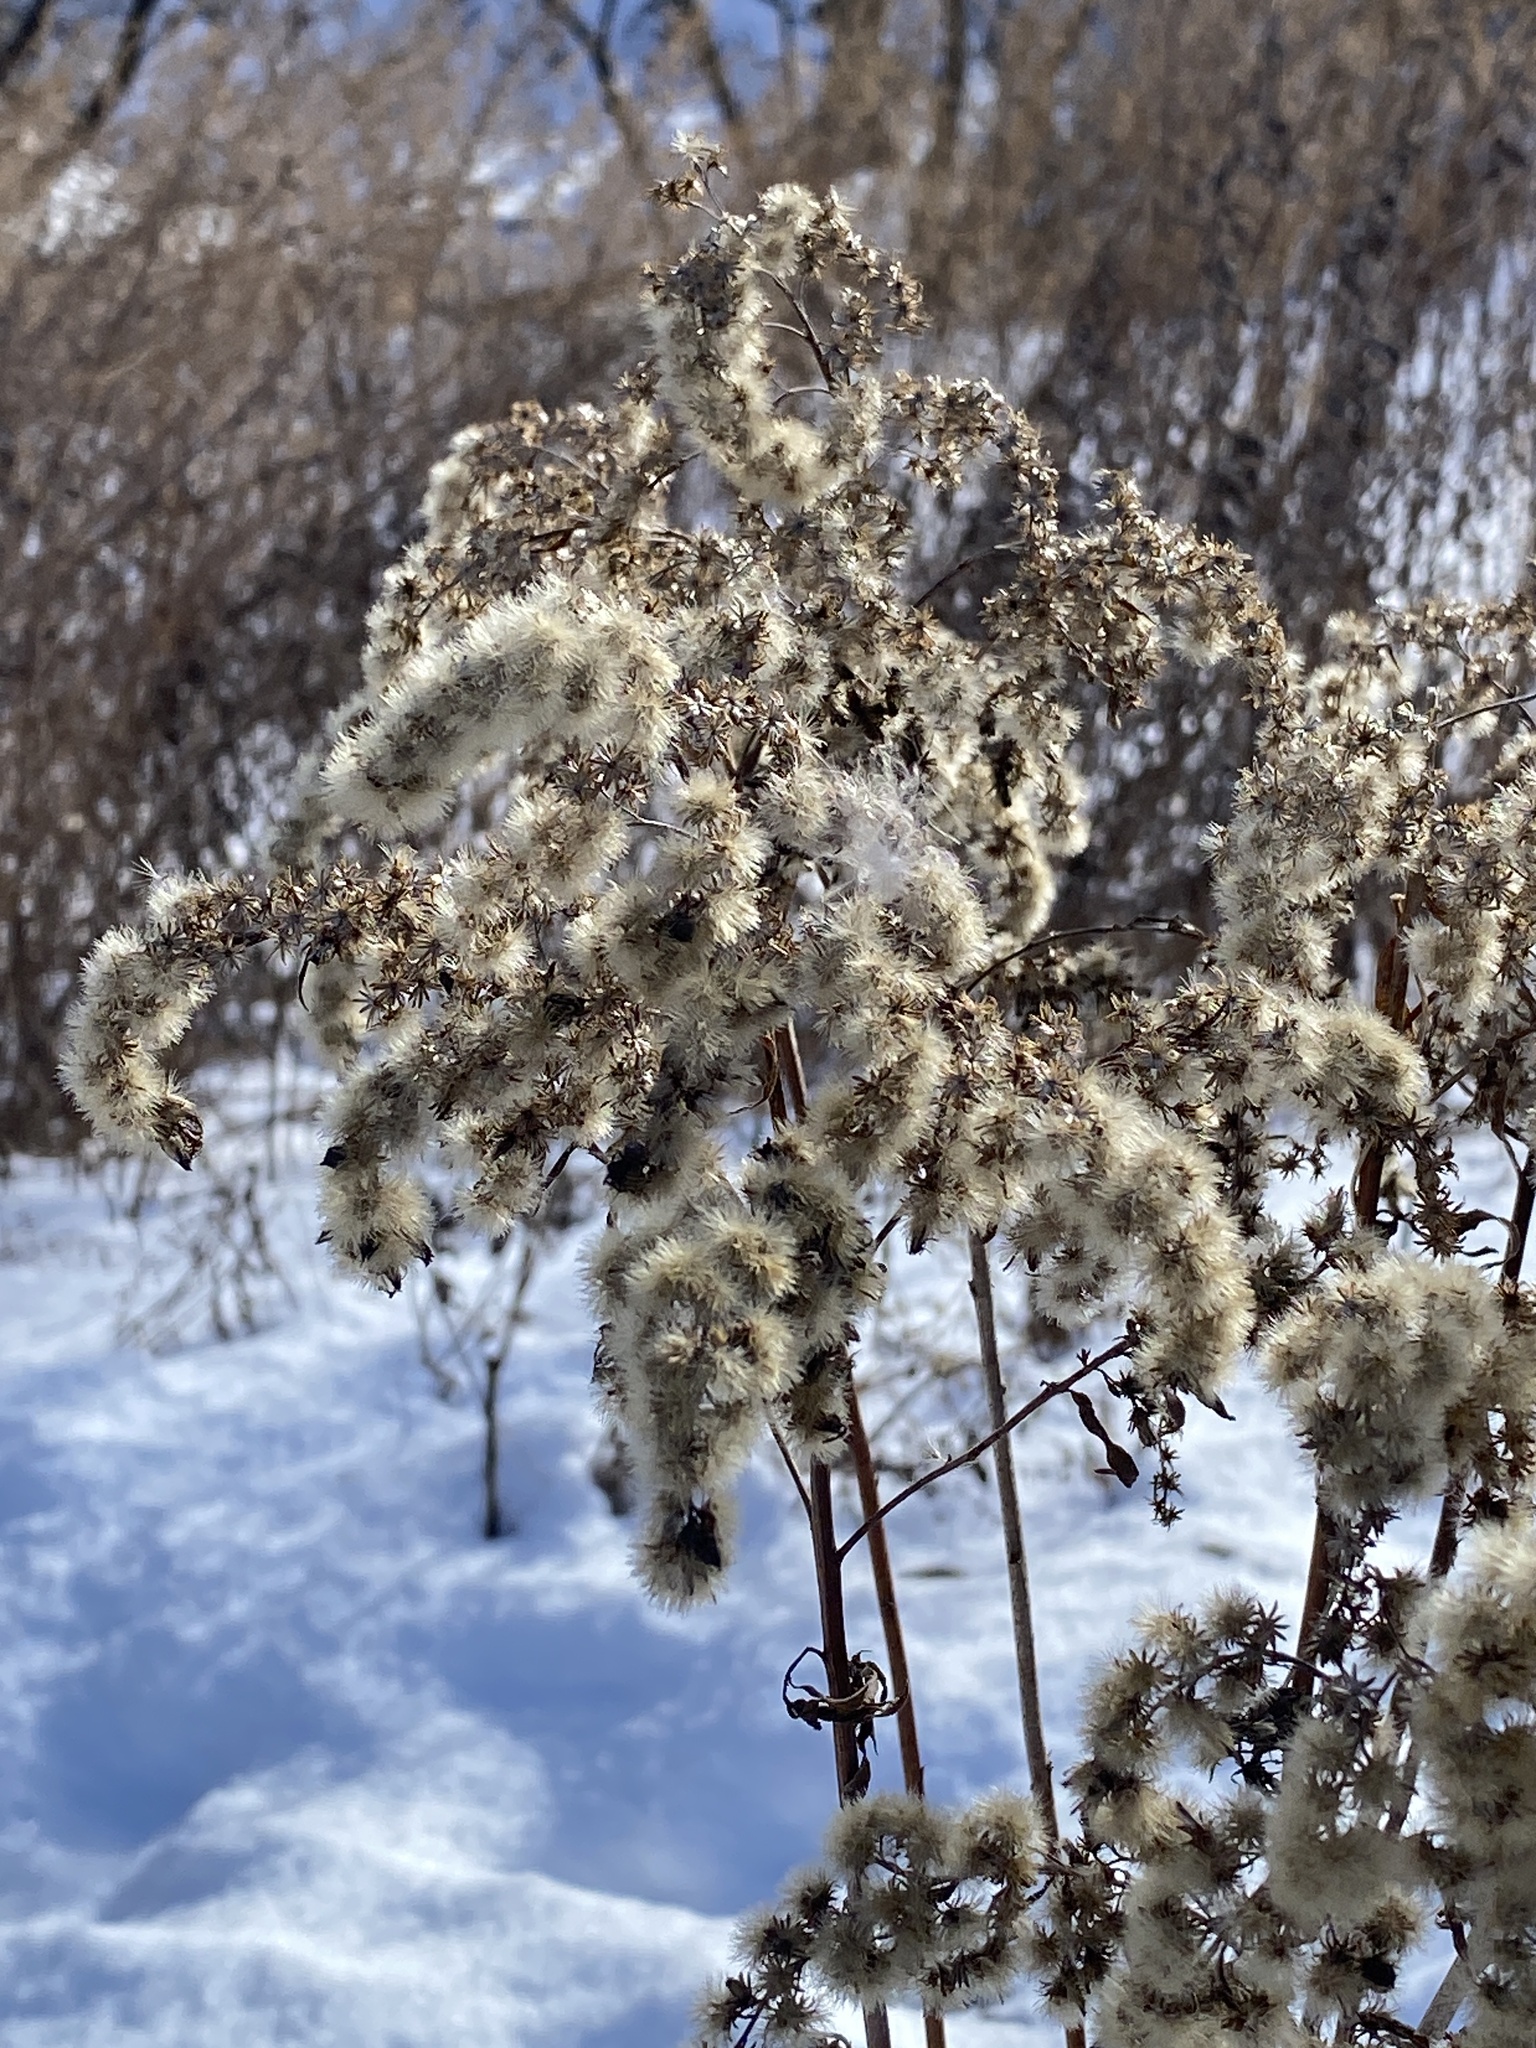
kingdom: Plantae
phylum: Tracheophyta
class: Magnoliopsida
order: Asterales
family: Asteraceae
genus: Solidago
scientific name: Solidago
